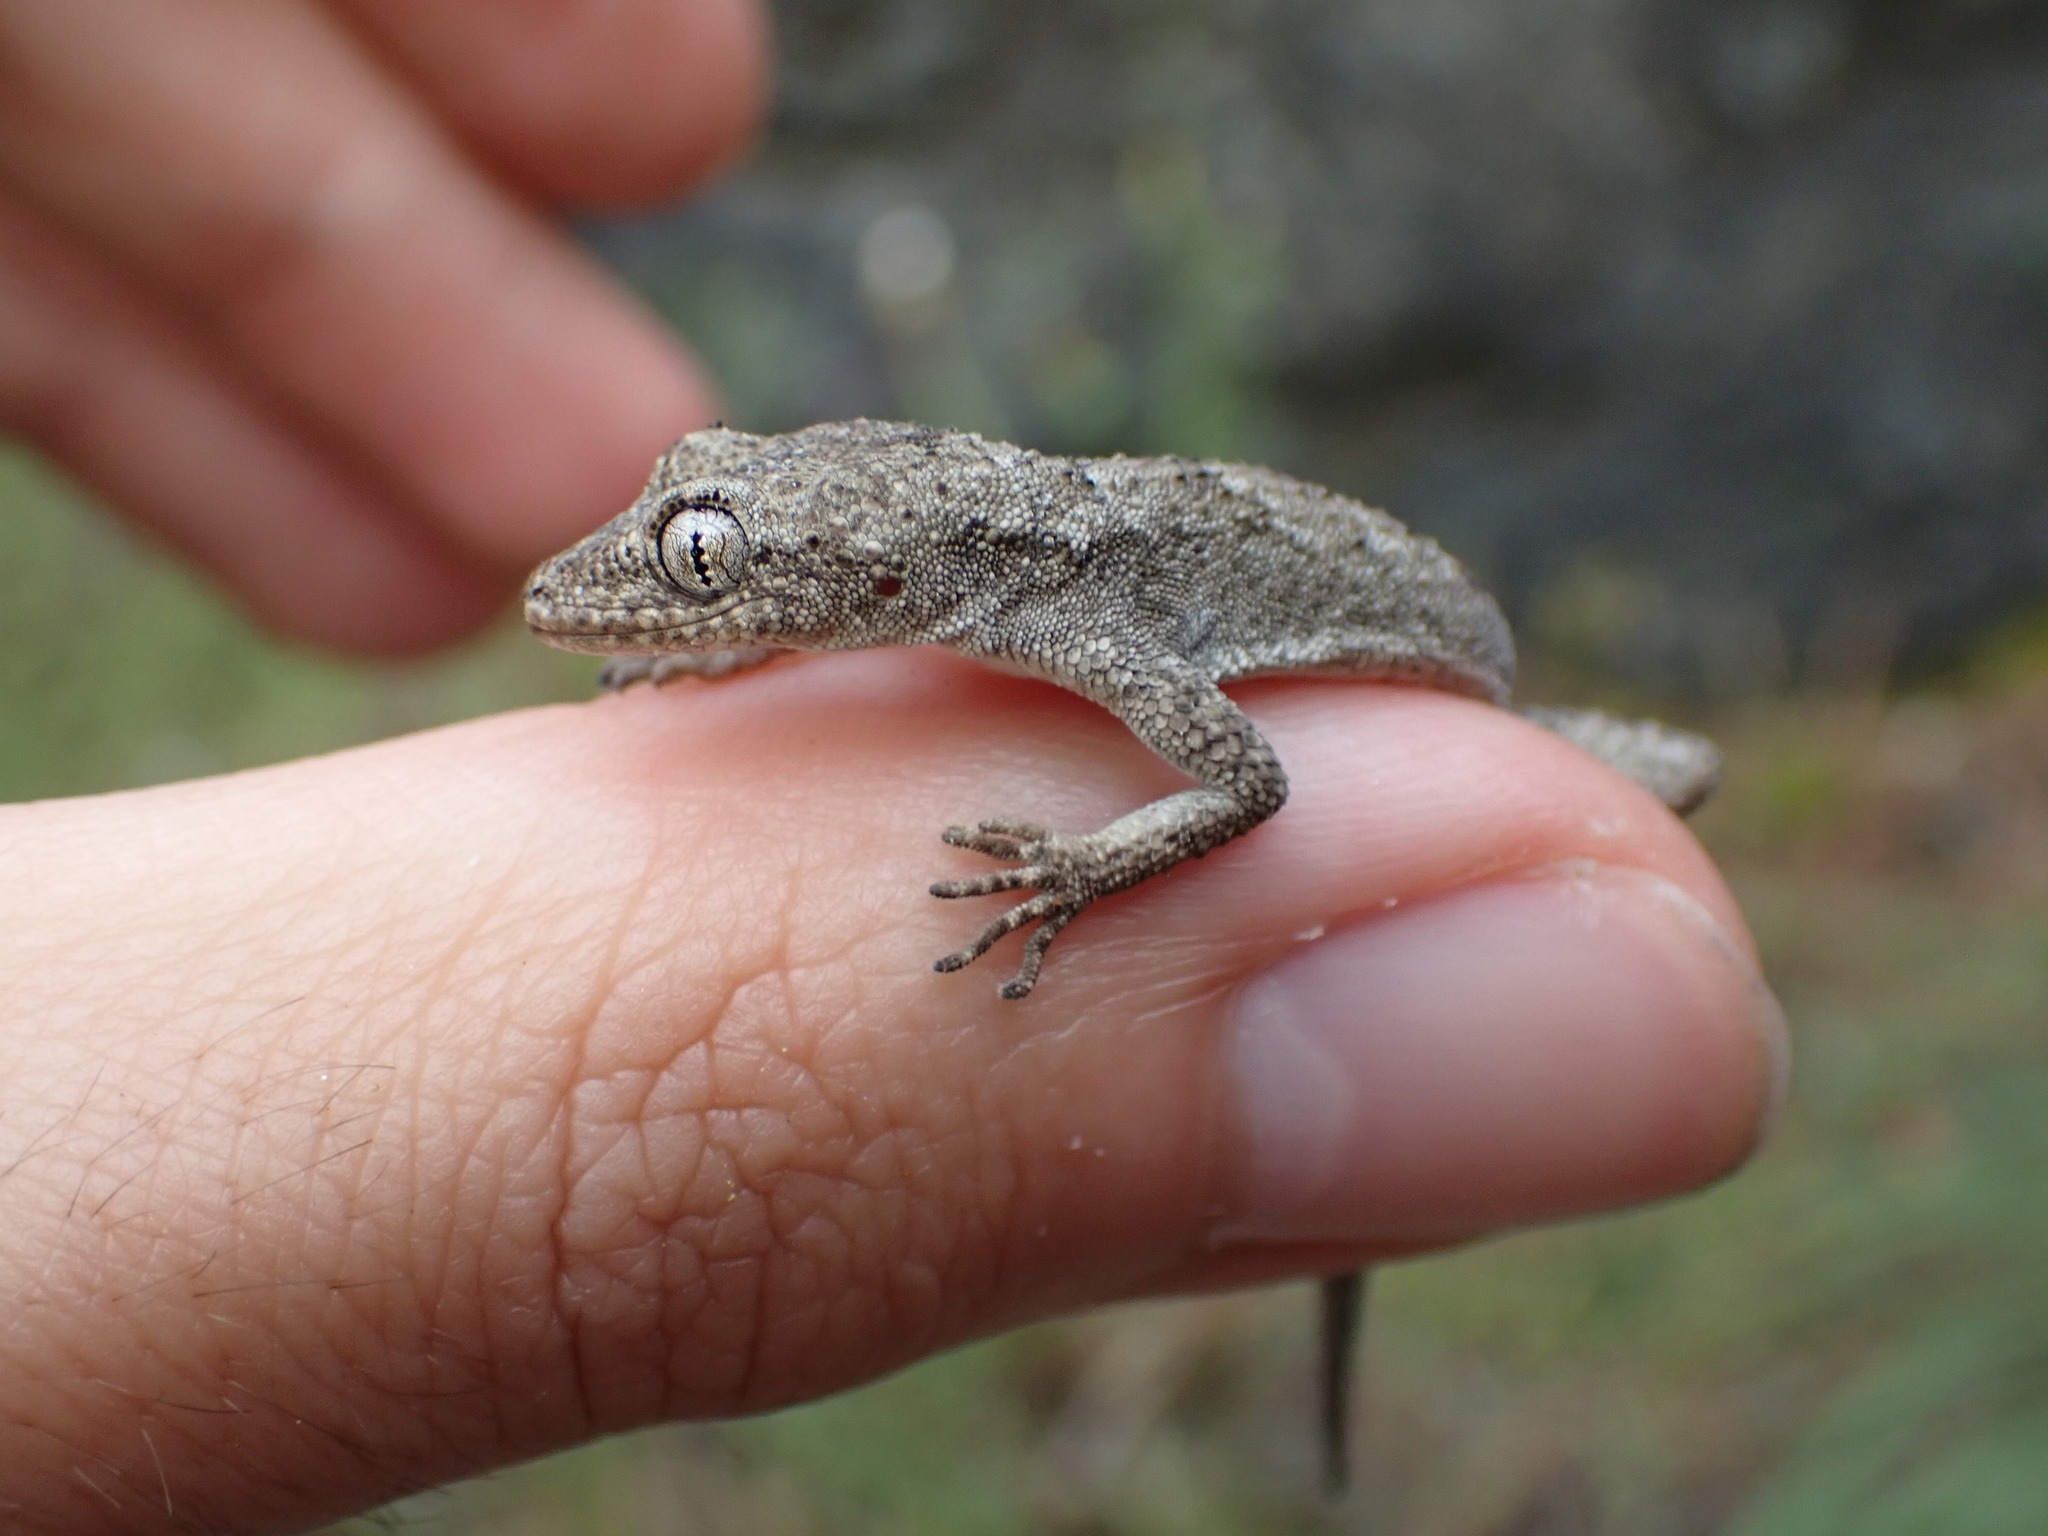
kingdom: Animalia
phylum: Chordata
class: Squamata
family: Gekkonidae
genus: Mediodactylus
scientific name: Mediodactylus kotschyi
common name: Kotschy's gecko
